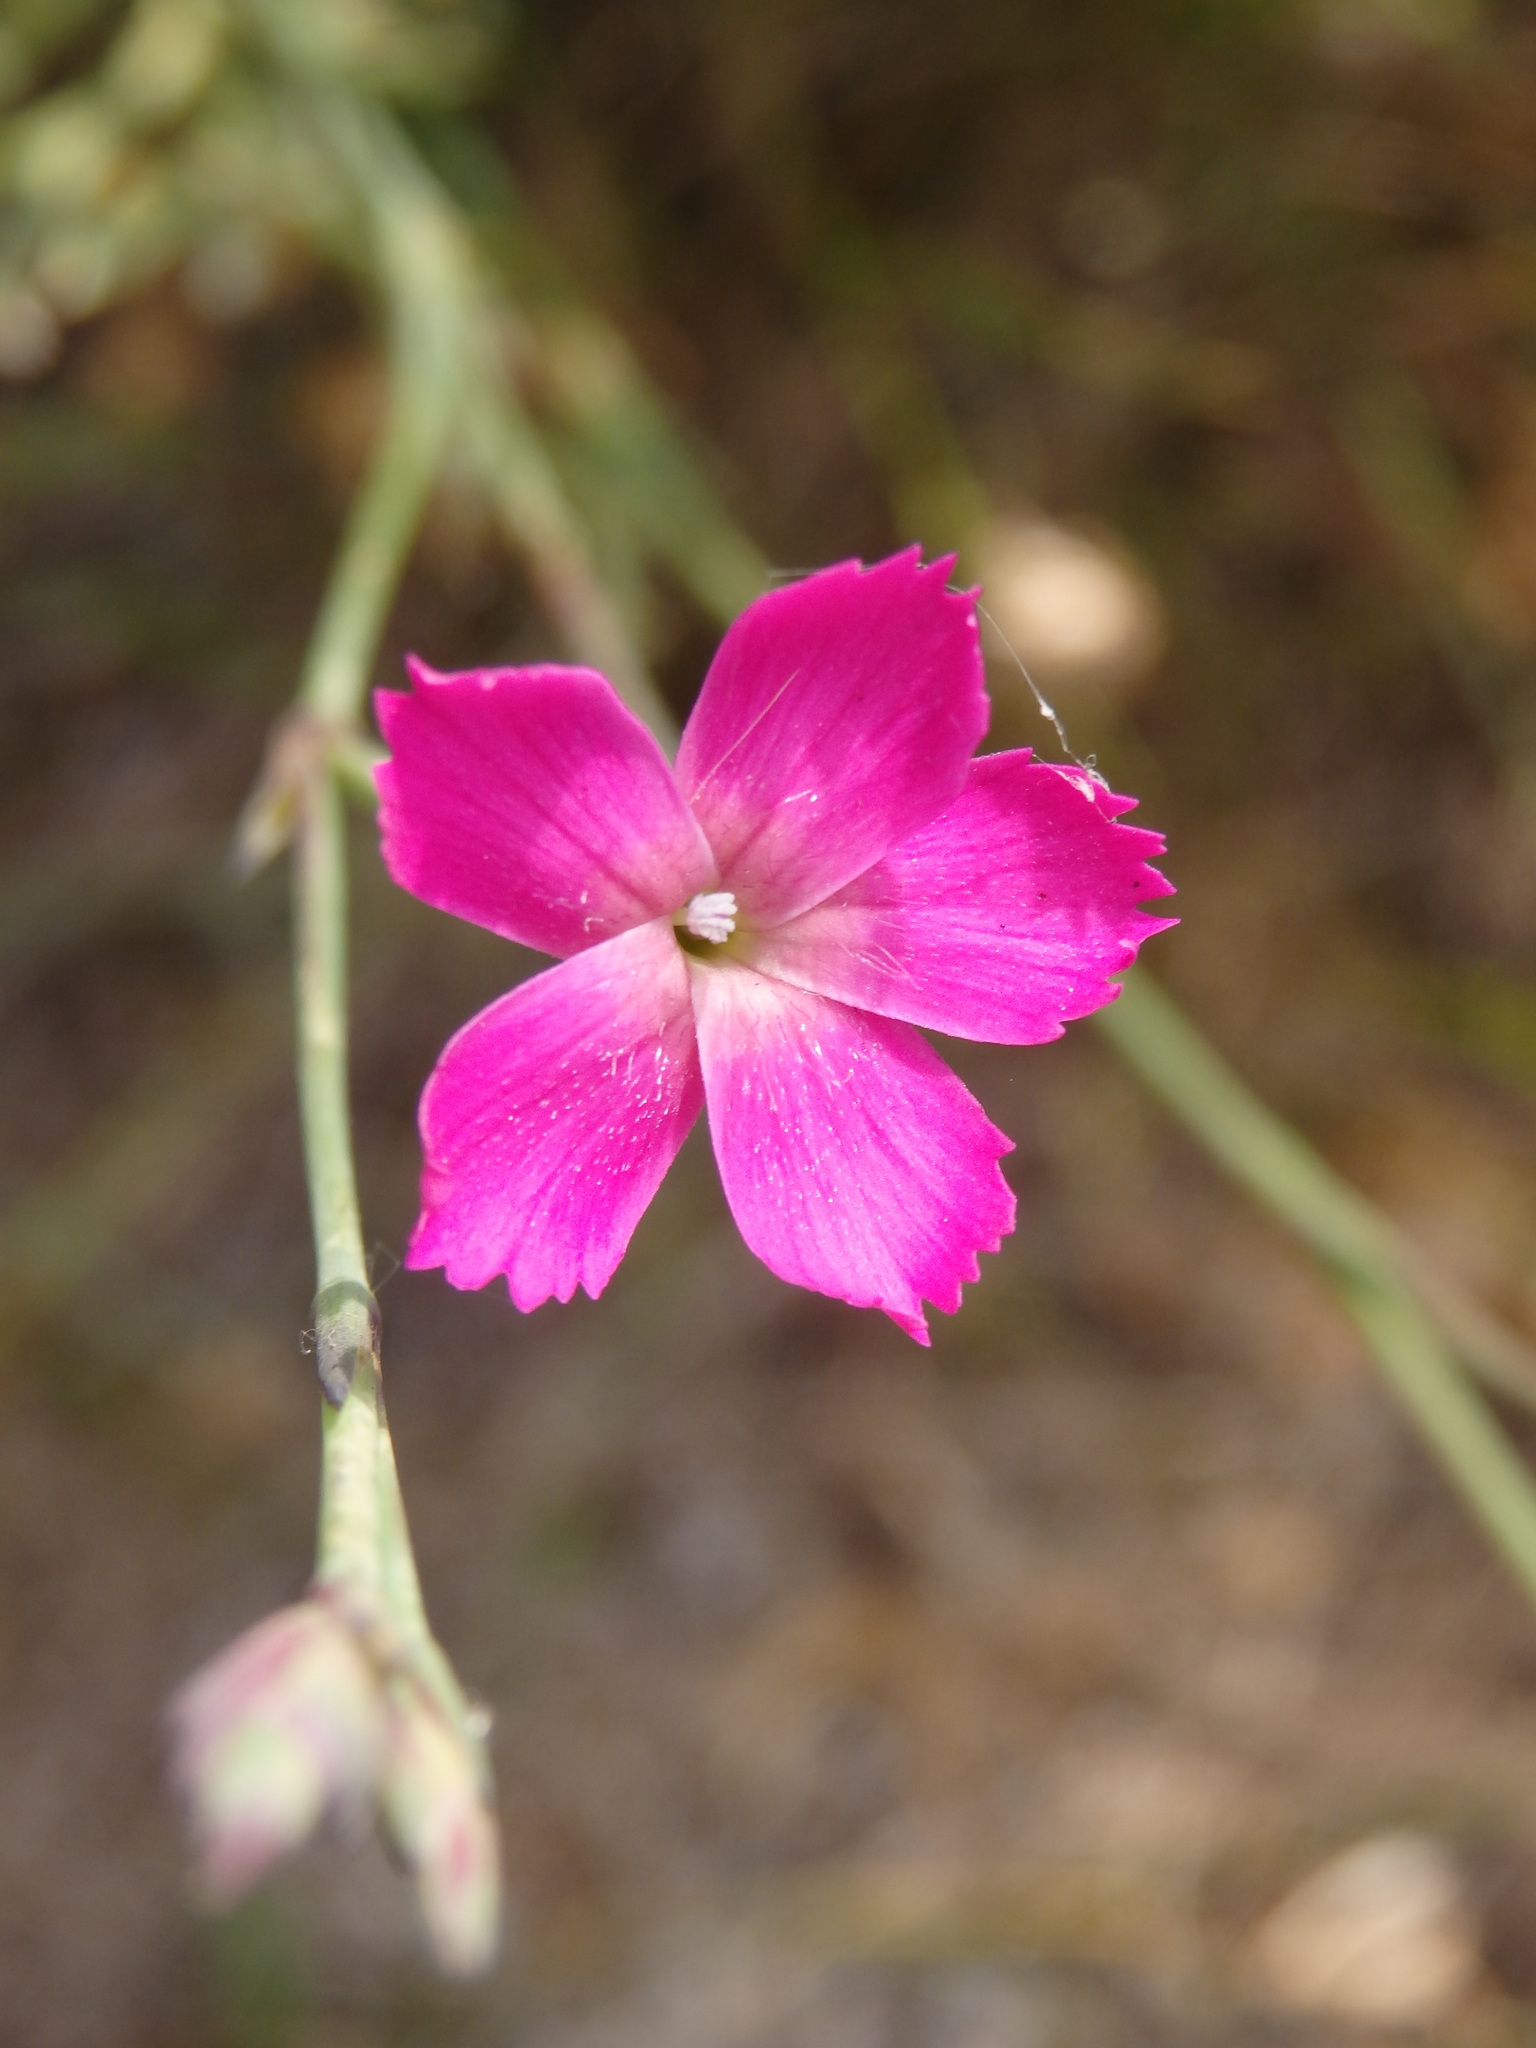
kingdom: Plantae
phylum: Tracheophyta
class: Magnoliopsida
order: Caryophyllales
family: Caryophyllaceae
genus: Dianthus
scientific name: Dianthus lusitanus
